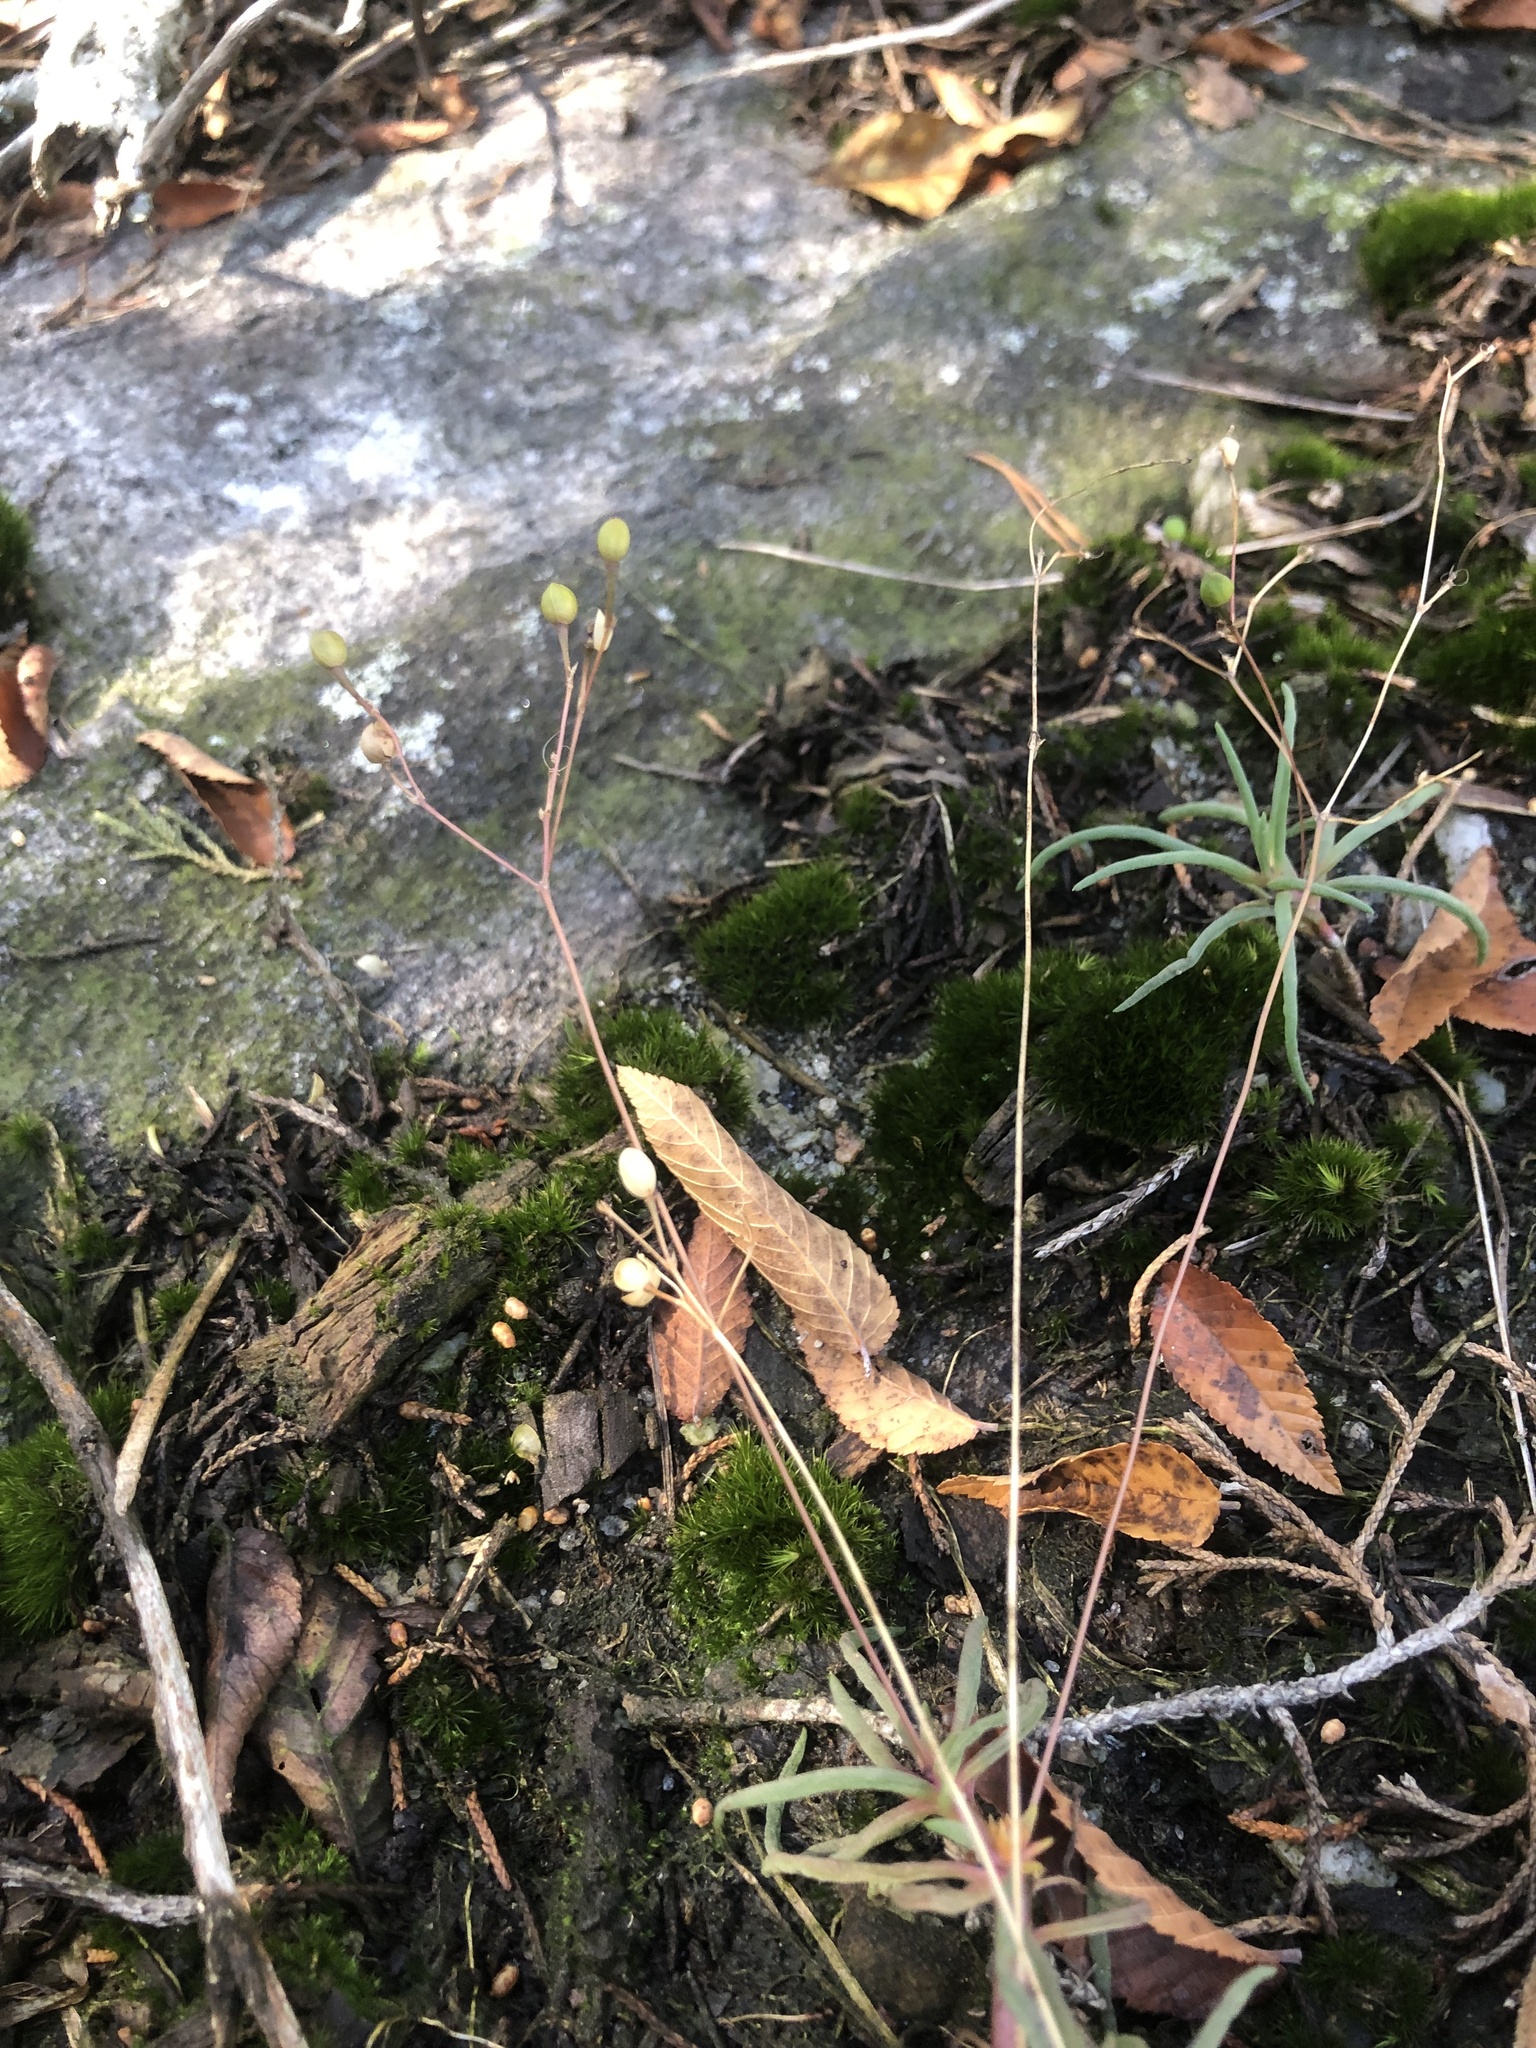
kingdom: Plantae
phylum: Tracheophyta
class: Magnoliopsida
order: Caryophyllales
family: Montiaceae
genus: Phemeranthus
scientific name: Phemeranthus teretifolius
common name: Quill fameflower
